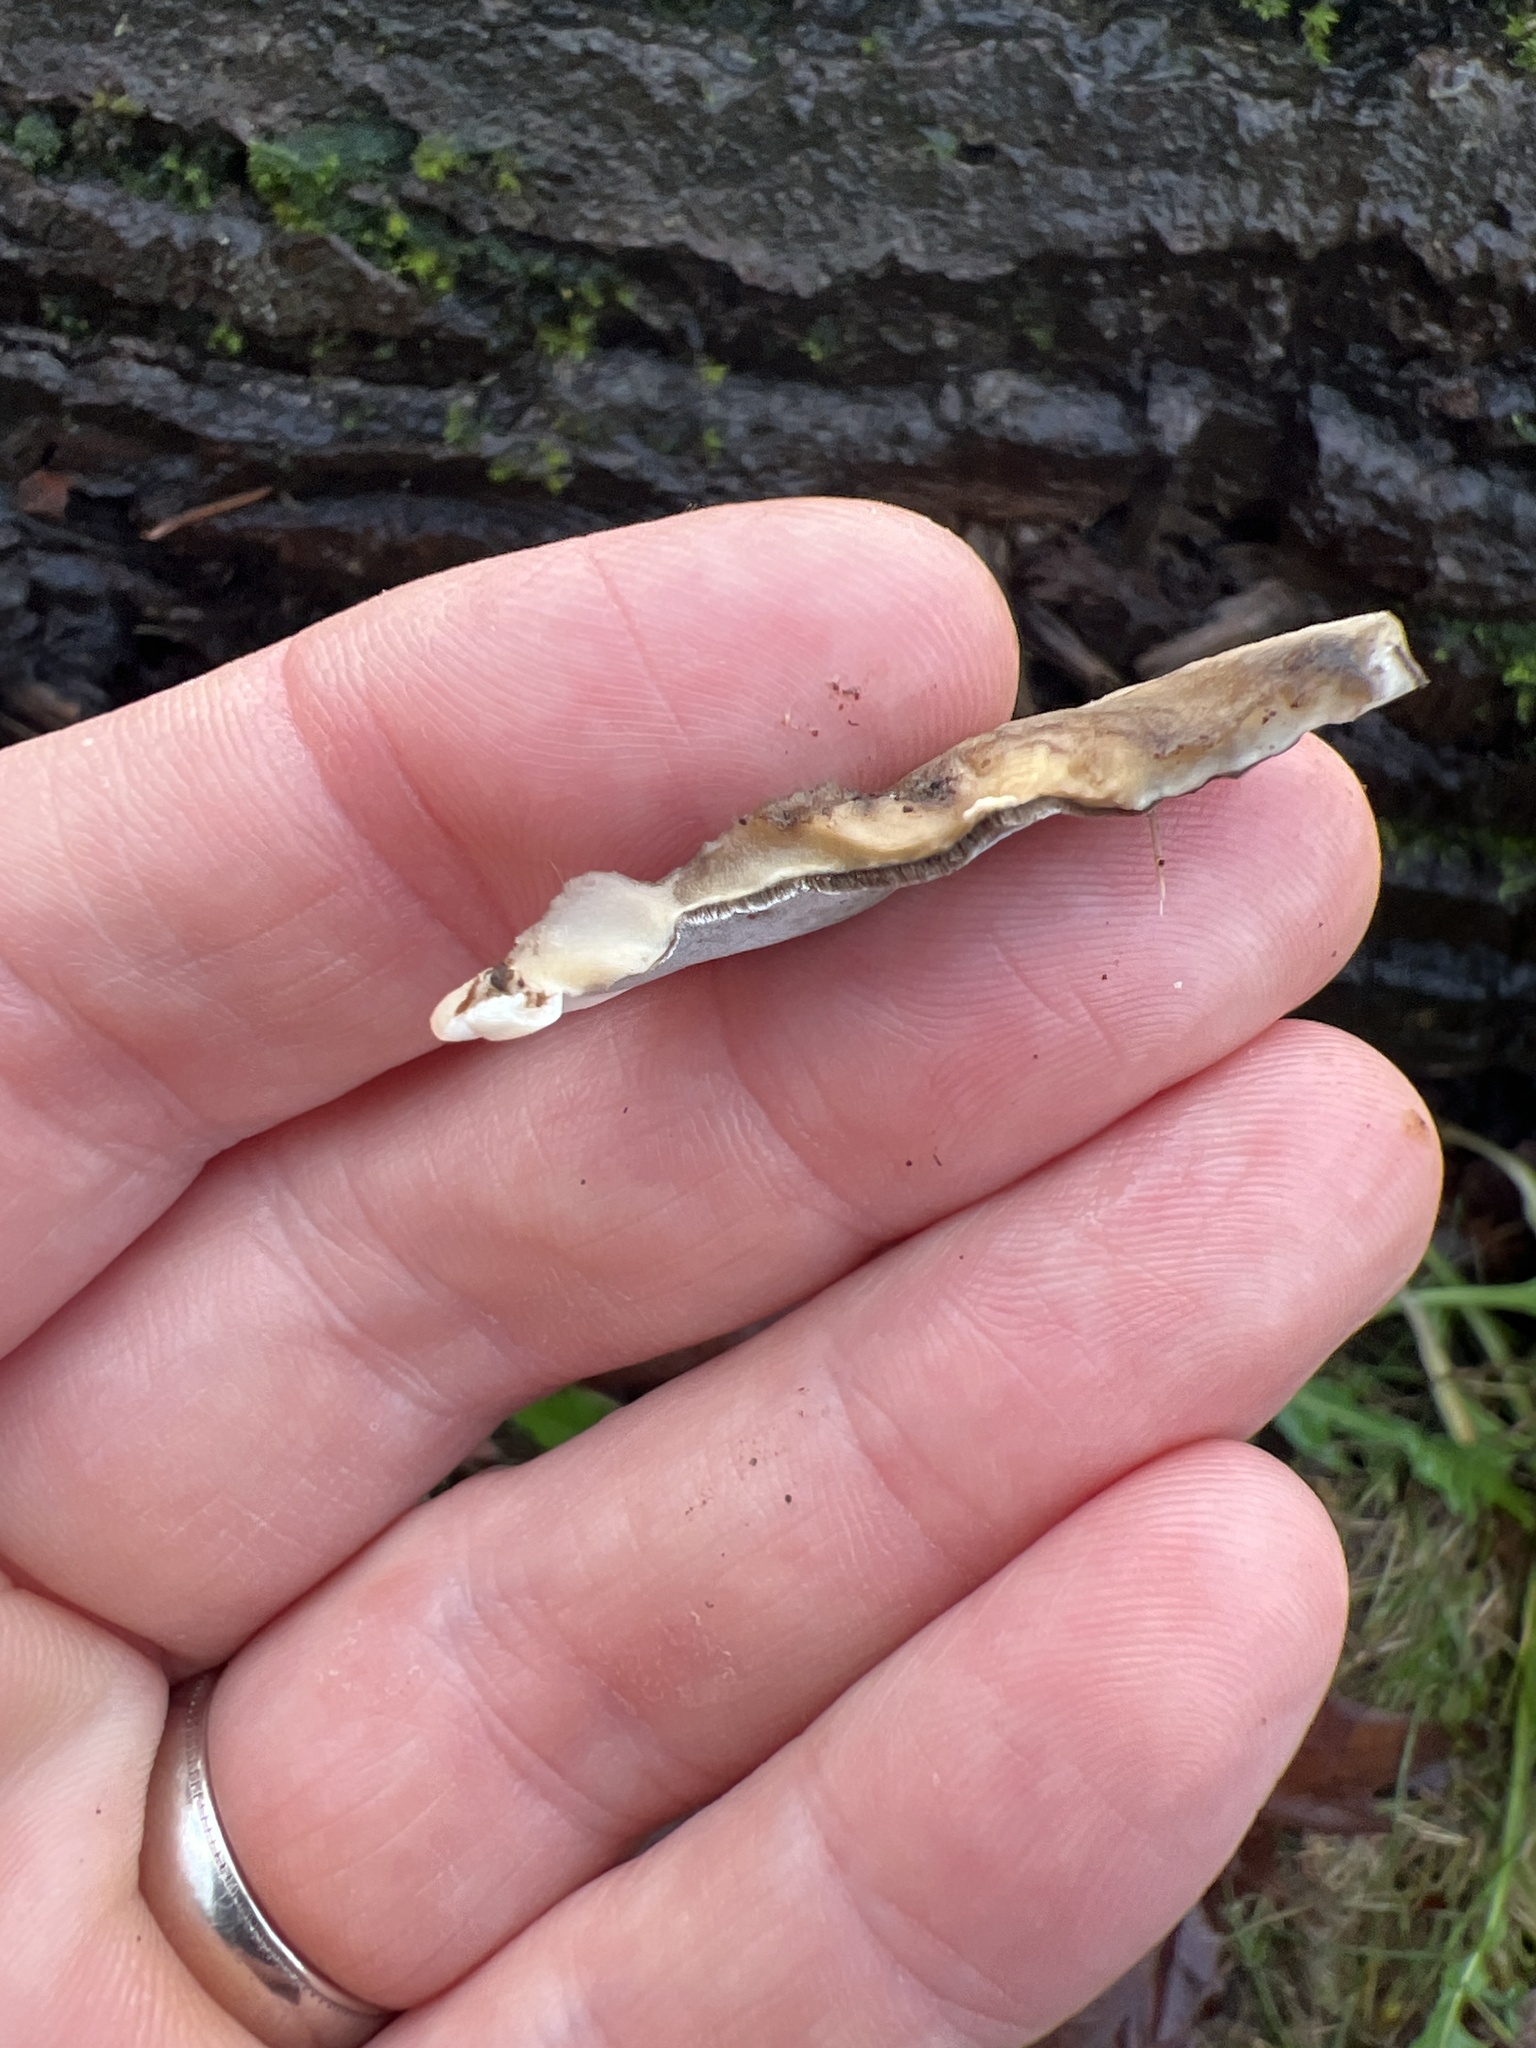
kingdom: Fungi
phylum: Basidiomycota
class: Agaricomycetes
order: Polyporales
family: Phanerochaetaceae
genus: Bjerkandera
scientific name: Bjerkandera adusta
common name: Smoky bracket
